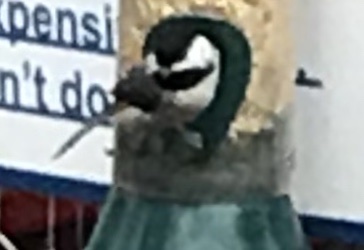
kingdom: Animalia
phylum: Chordata
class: Aves
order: Passeriformes
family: Paridae
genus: Poecile
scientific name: Poecile carolinensis
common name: Carolina chickadee
